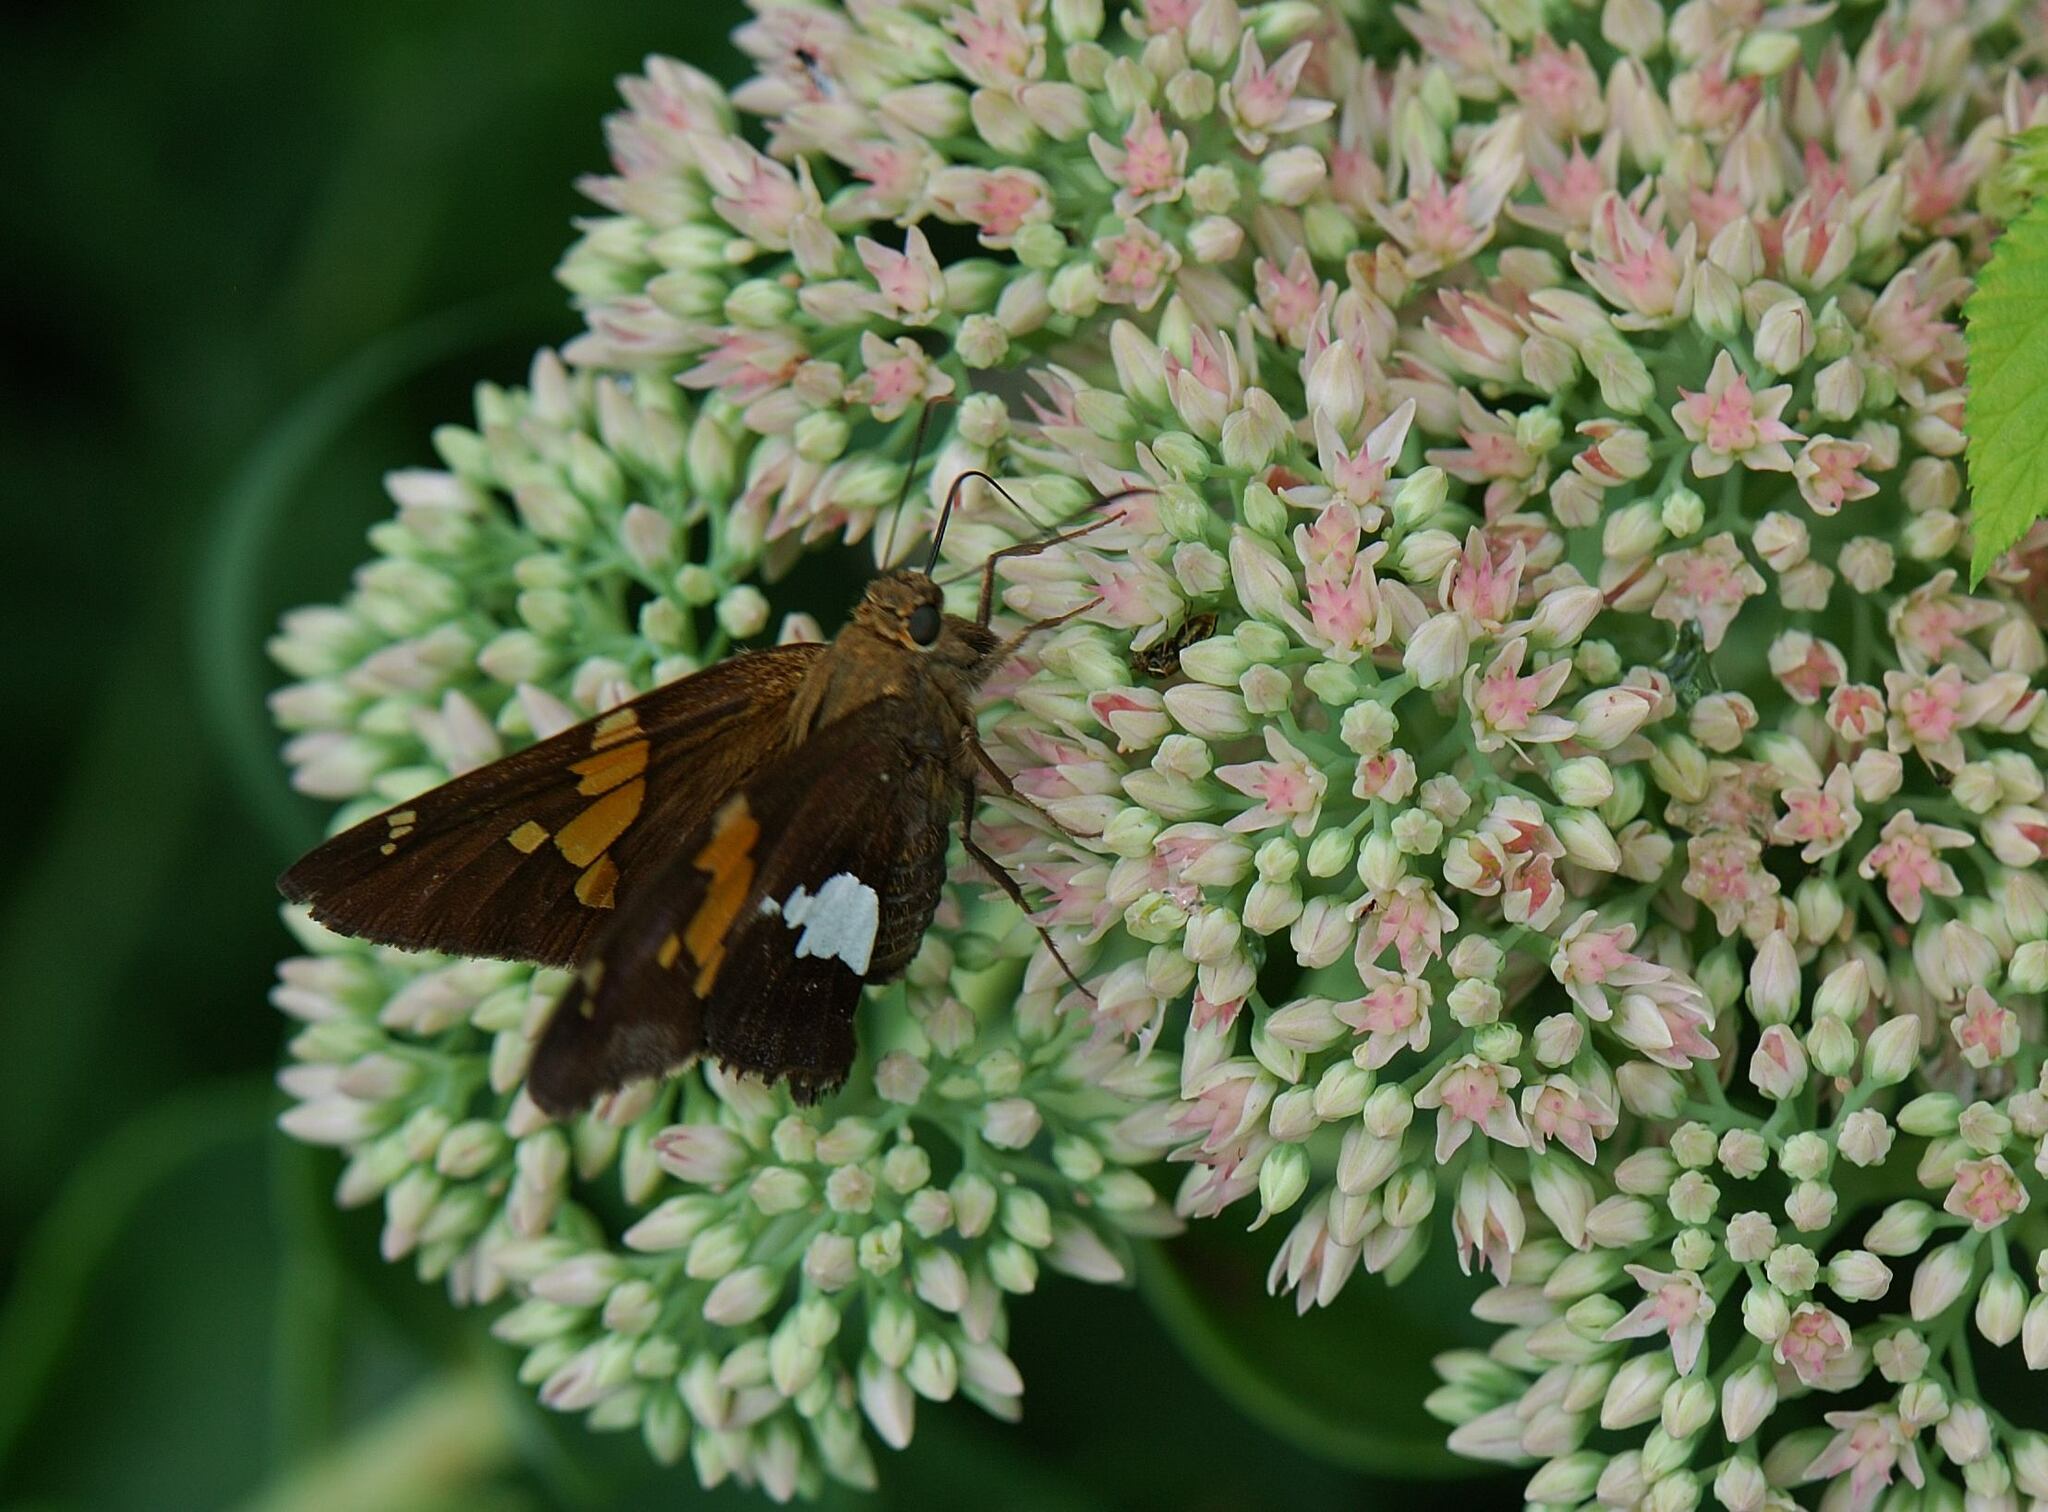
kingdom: Animalia
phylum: Arthropoda
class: Insecta
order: Lepidoptera
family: Hesperiidae
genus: Epargyreus
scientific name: Epargyreus clarus
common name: Silver-spotted skipper
